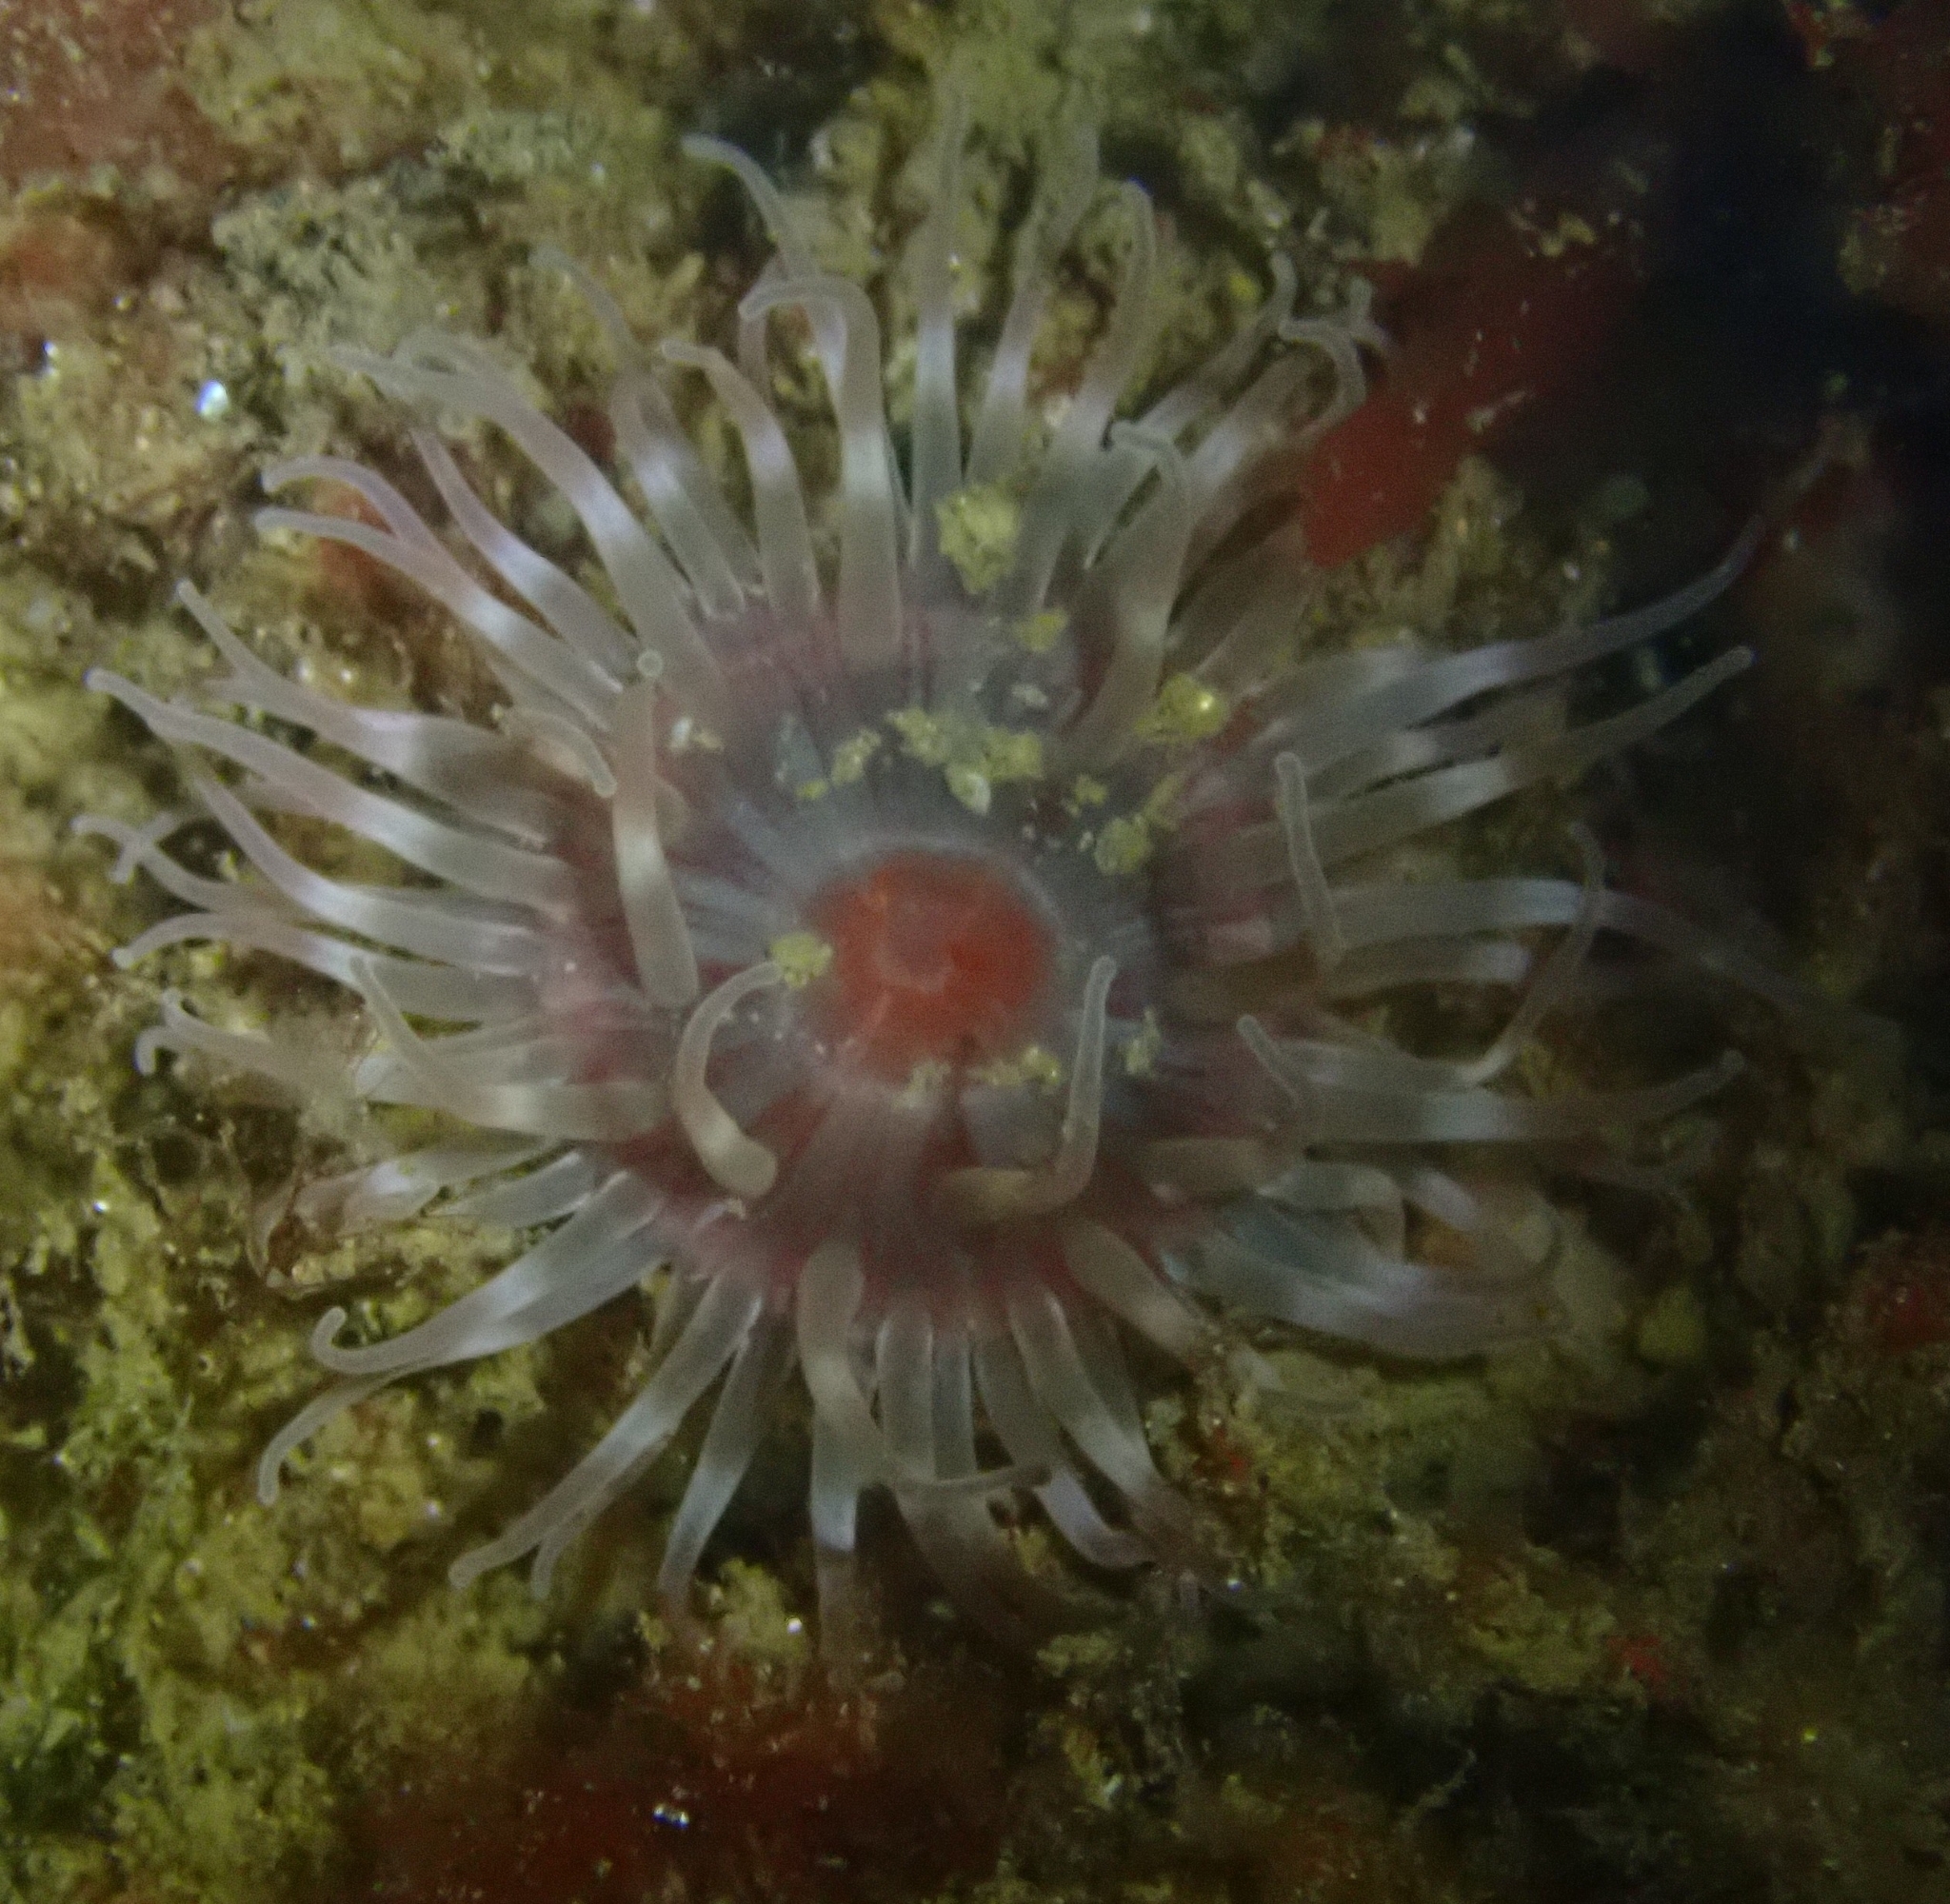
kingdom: Animalia
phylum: Cnidaria
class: Anthozoa
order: Actiniaria
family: Actiniidae
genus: Urticina
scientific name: Urticina felina
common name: Dahlia anemone
